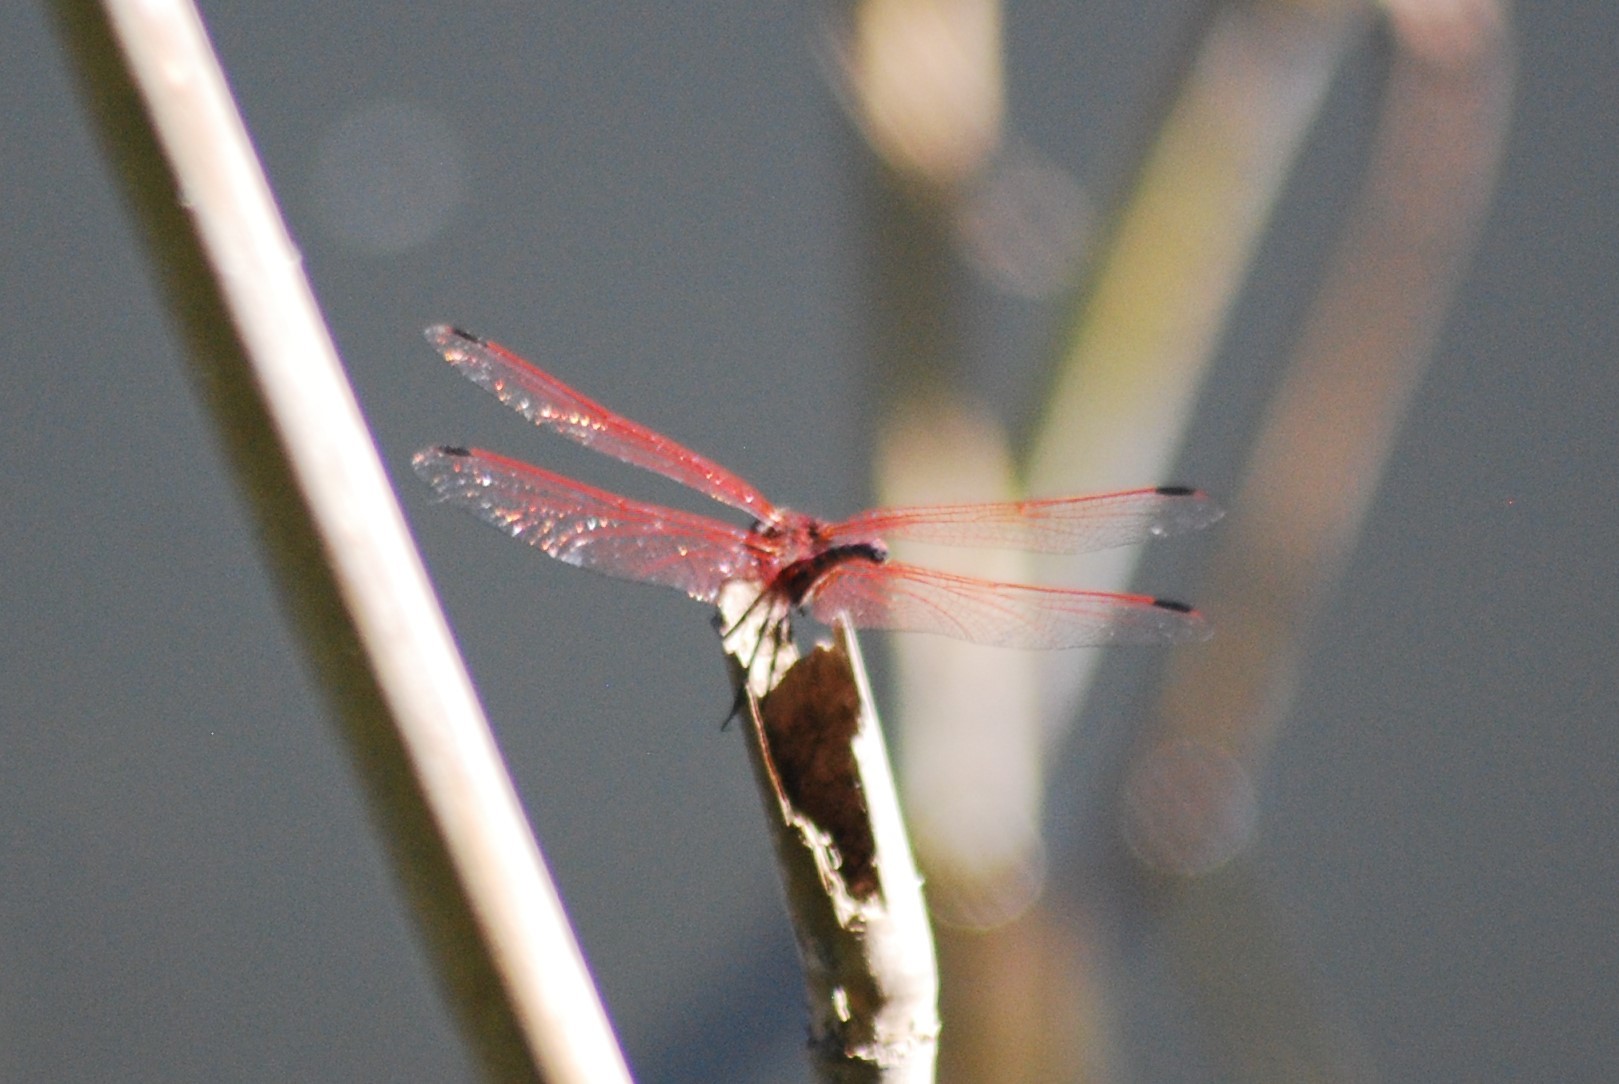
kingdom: Animalia
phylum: Arthropoda
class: Insecta
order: Odonata
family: Libellulidae
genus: Trithemis
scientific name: Trithemis arteriosa
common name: Red-veined dropwing
